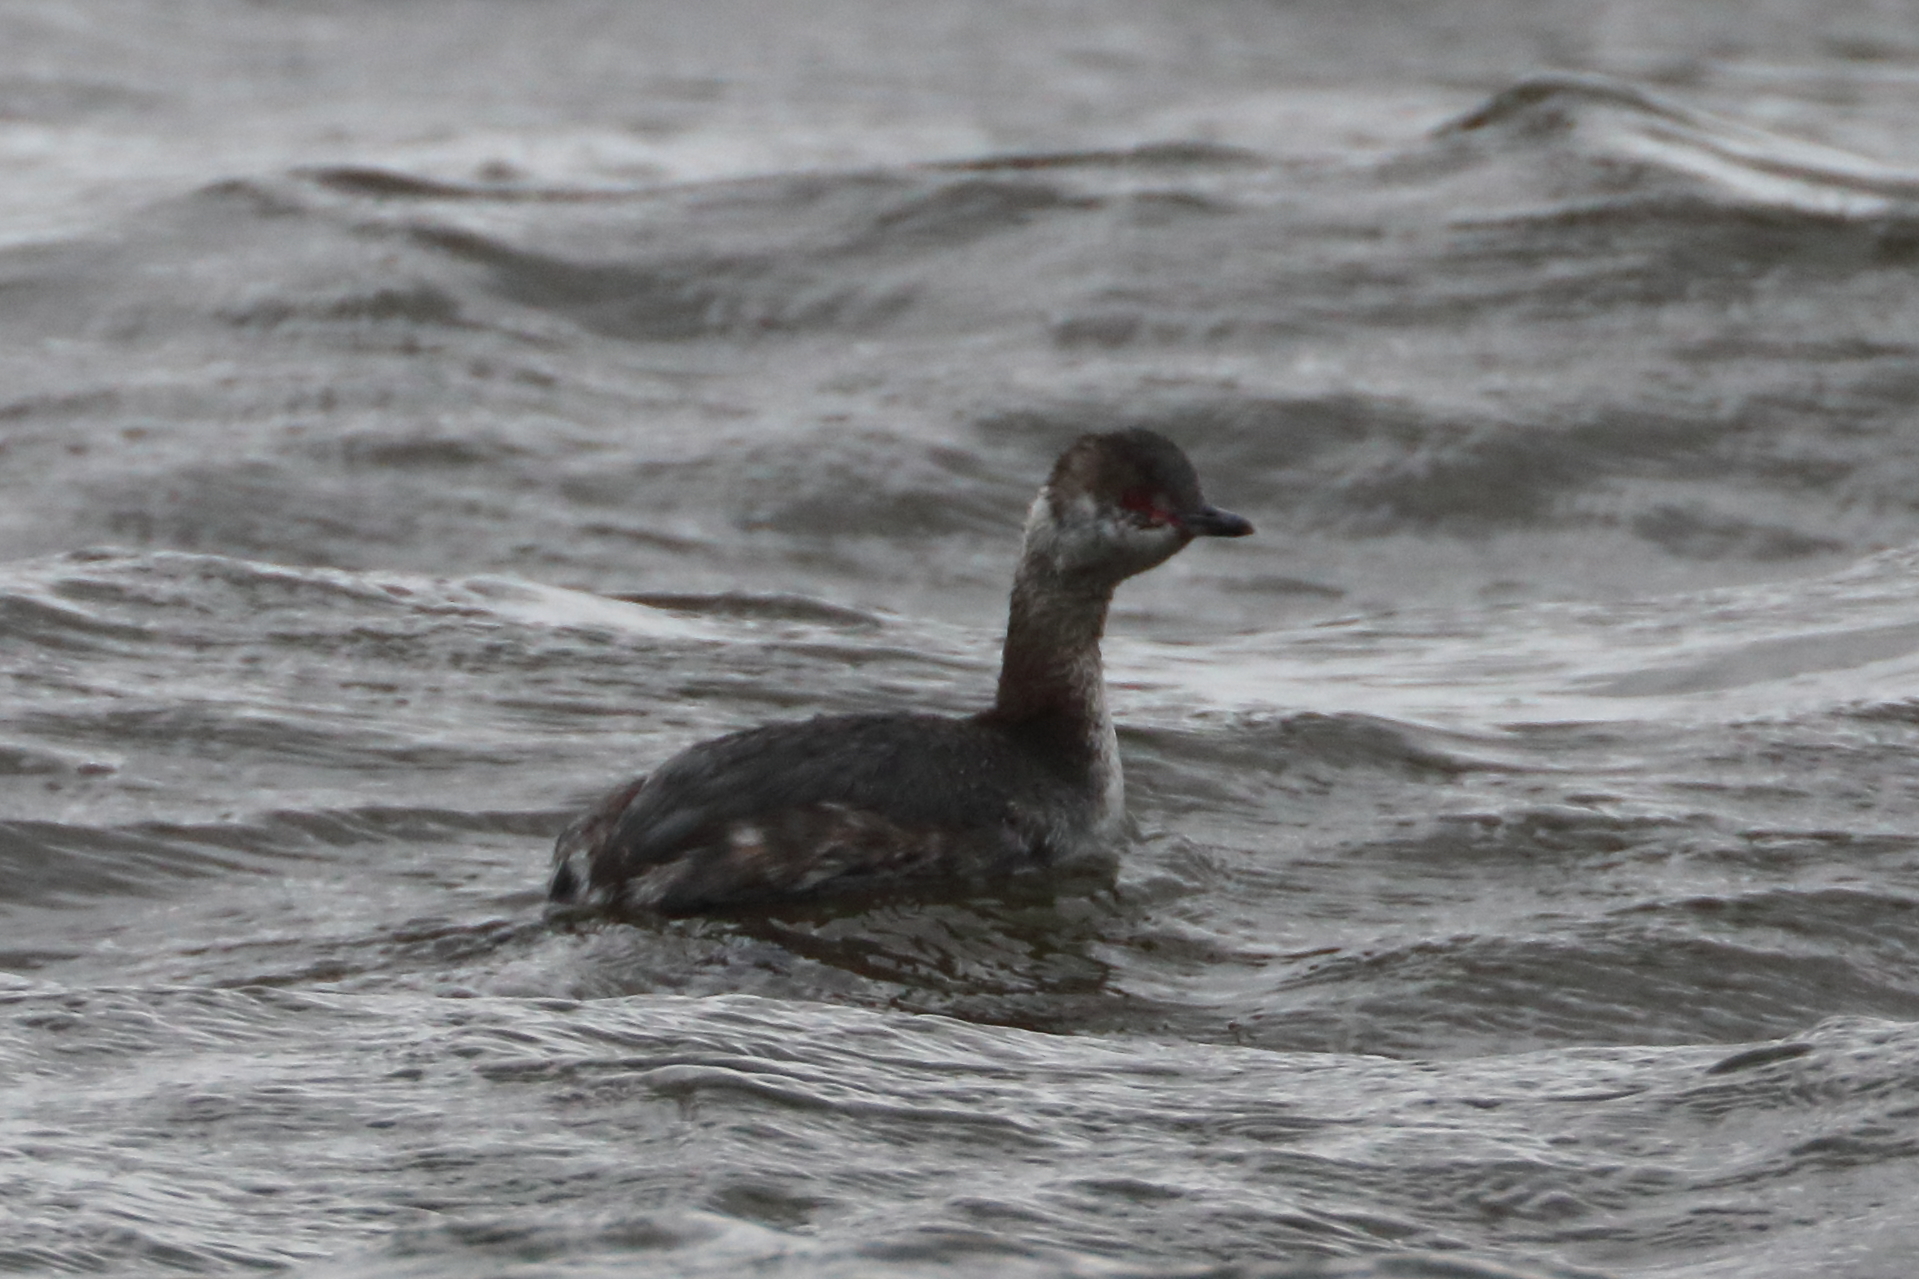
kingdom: Animalia
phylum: Chordata
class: Aves
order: Podicipediformes
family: Podicipedidae
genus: Podiceps
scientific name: Podiceps auritus
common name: Horned grebe
